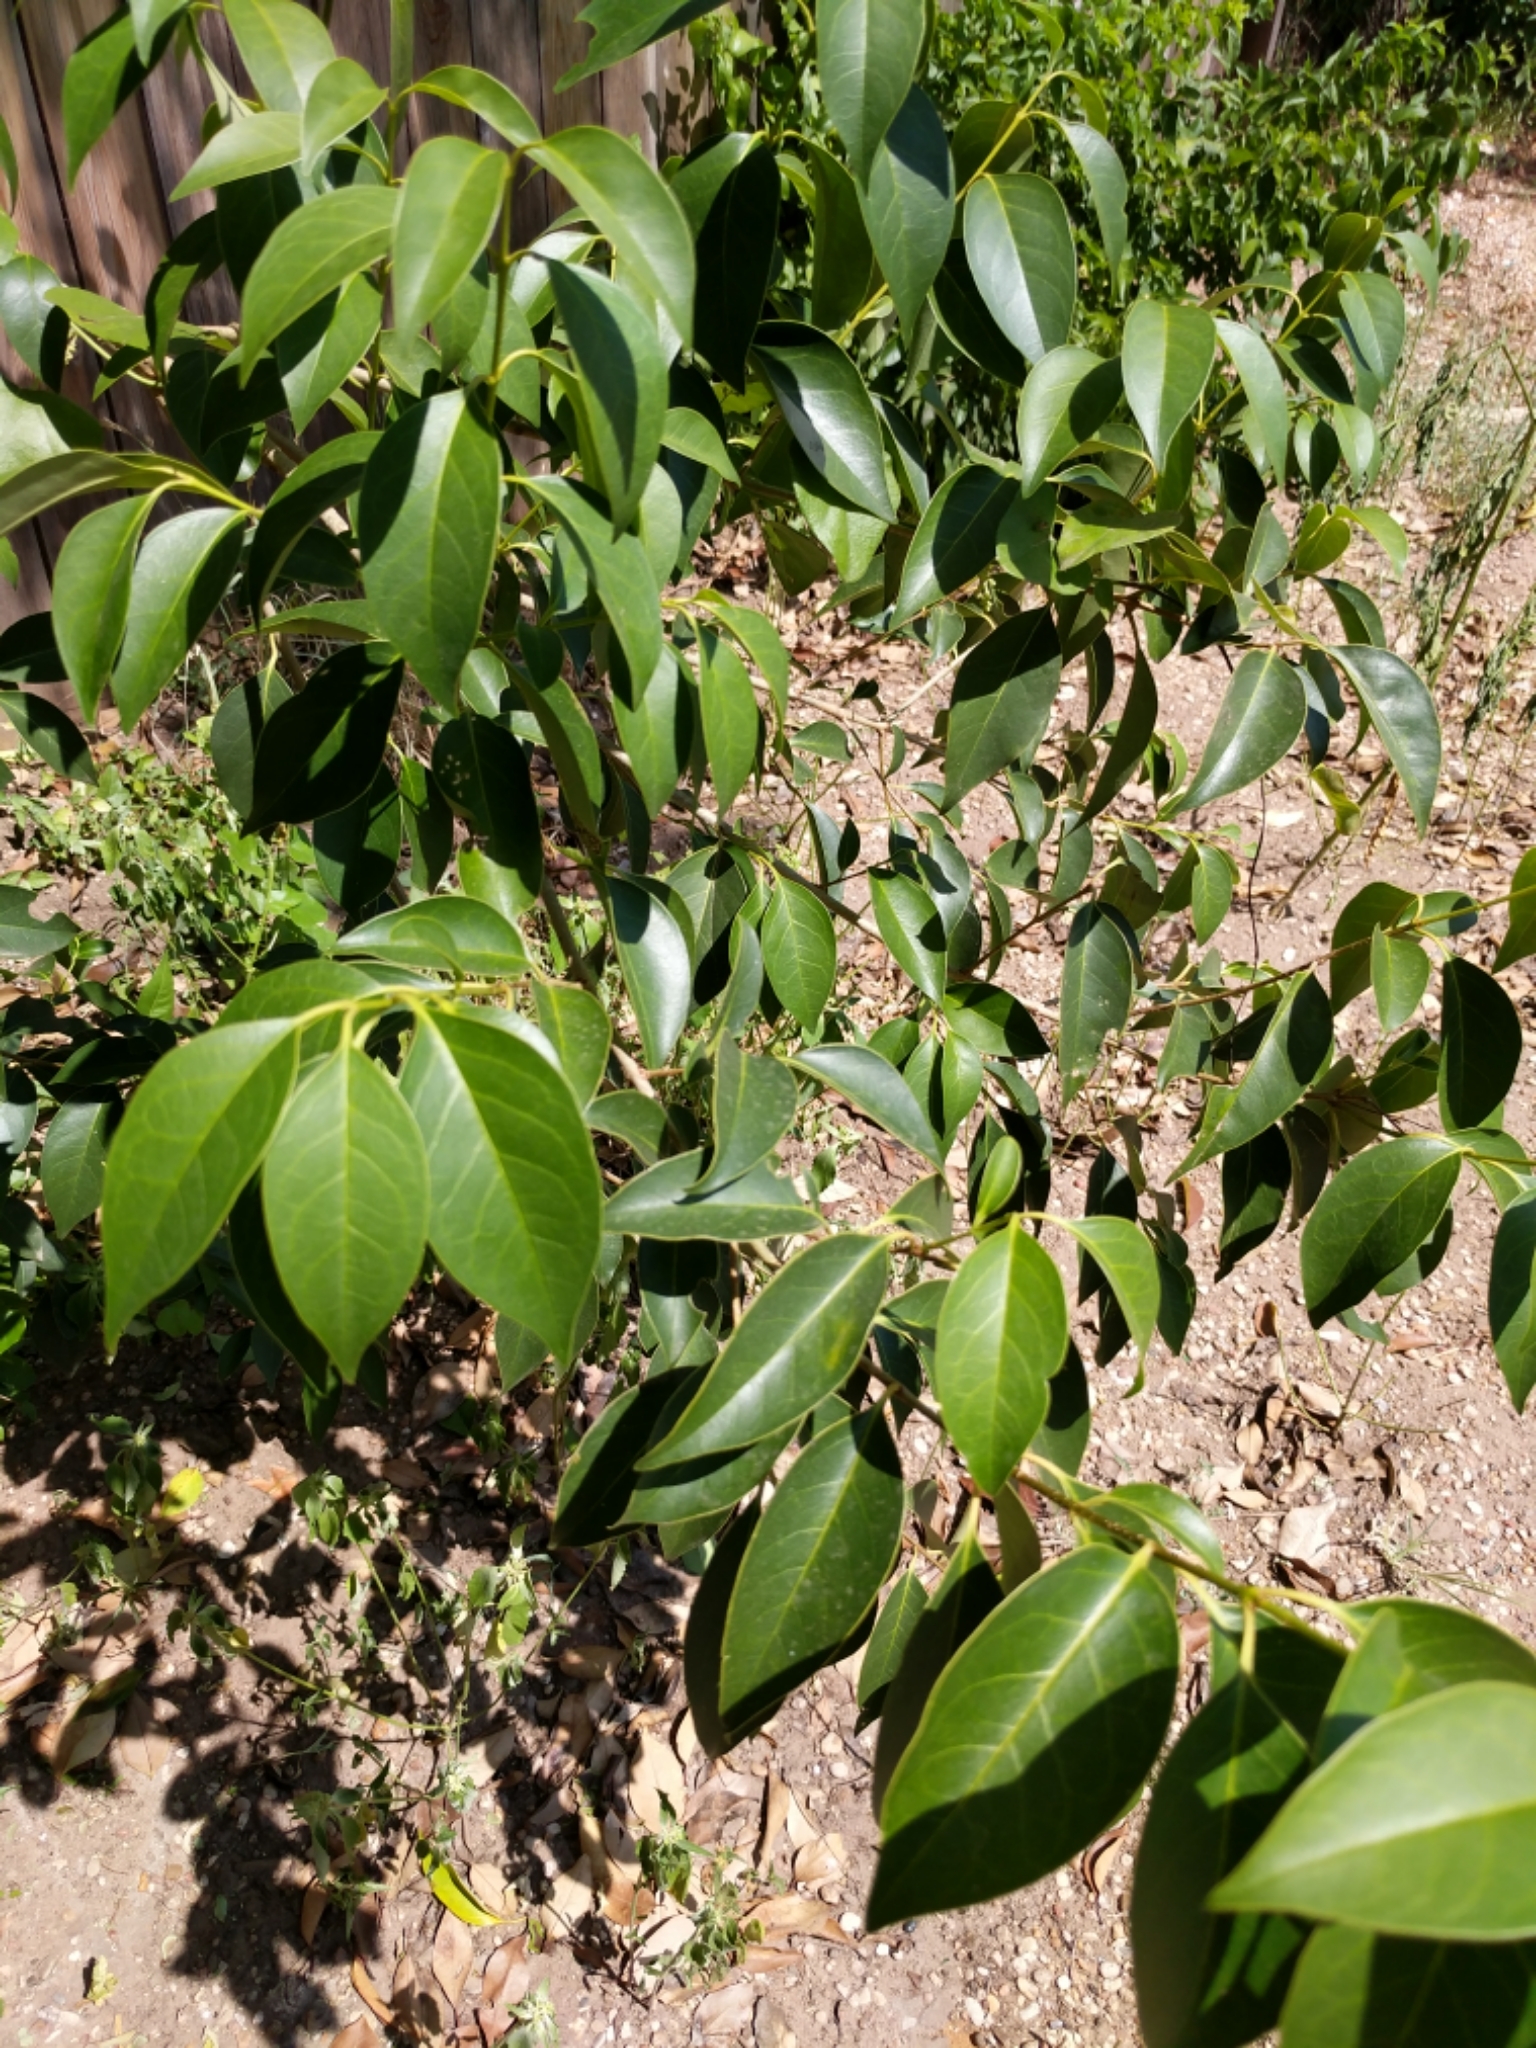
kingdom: Plantae
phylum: Tracheophyta
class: Magnoliopsida
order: Lamiales
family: Oleaceae
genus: Ligustrum
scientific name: Ligustrum lucidum
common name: Glossy privet
